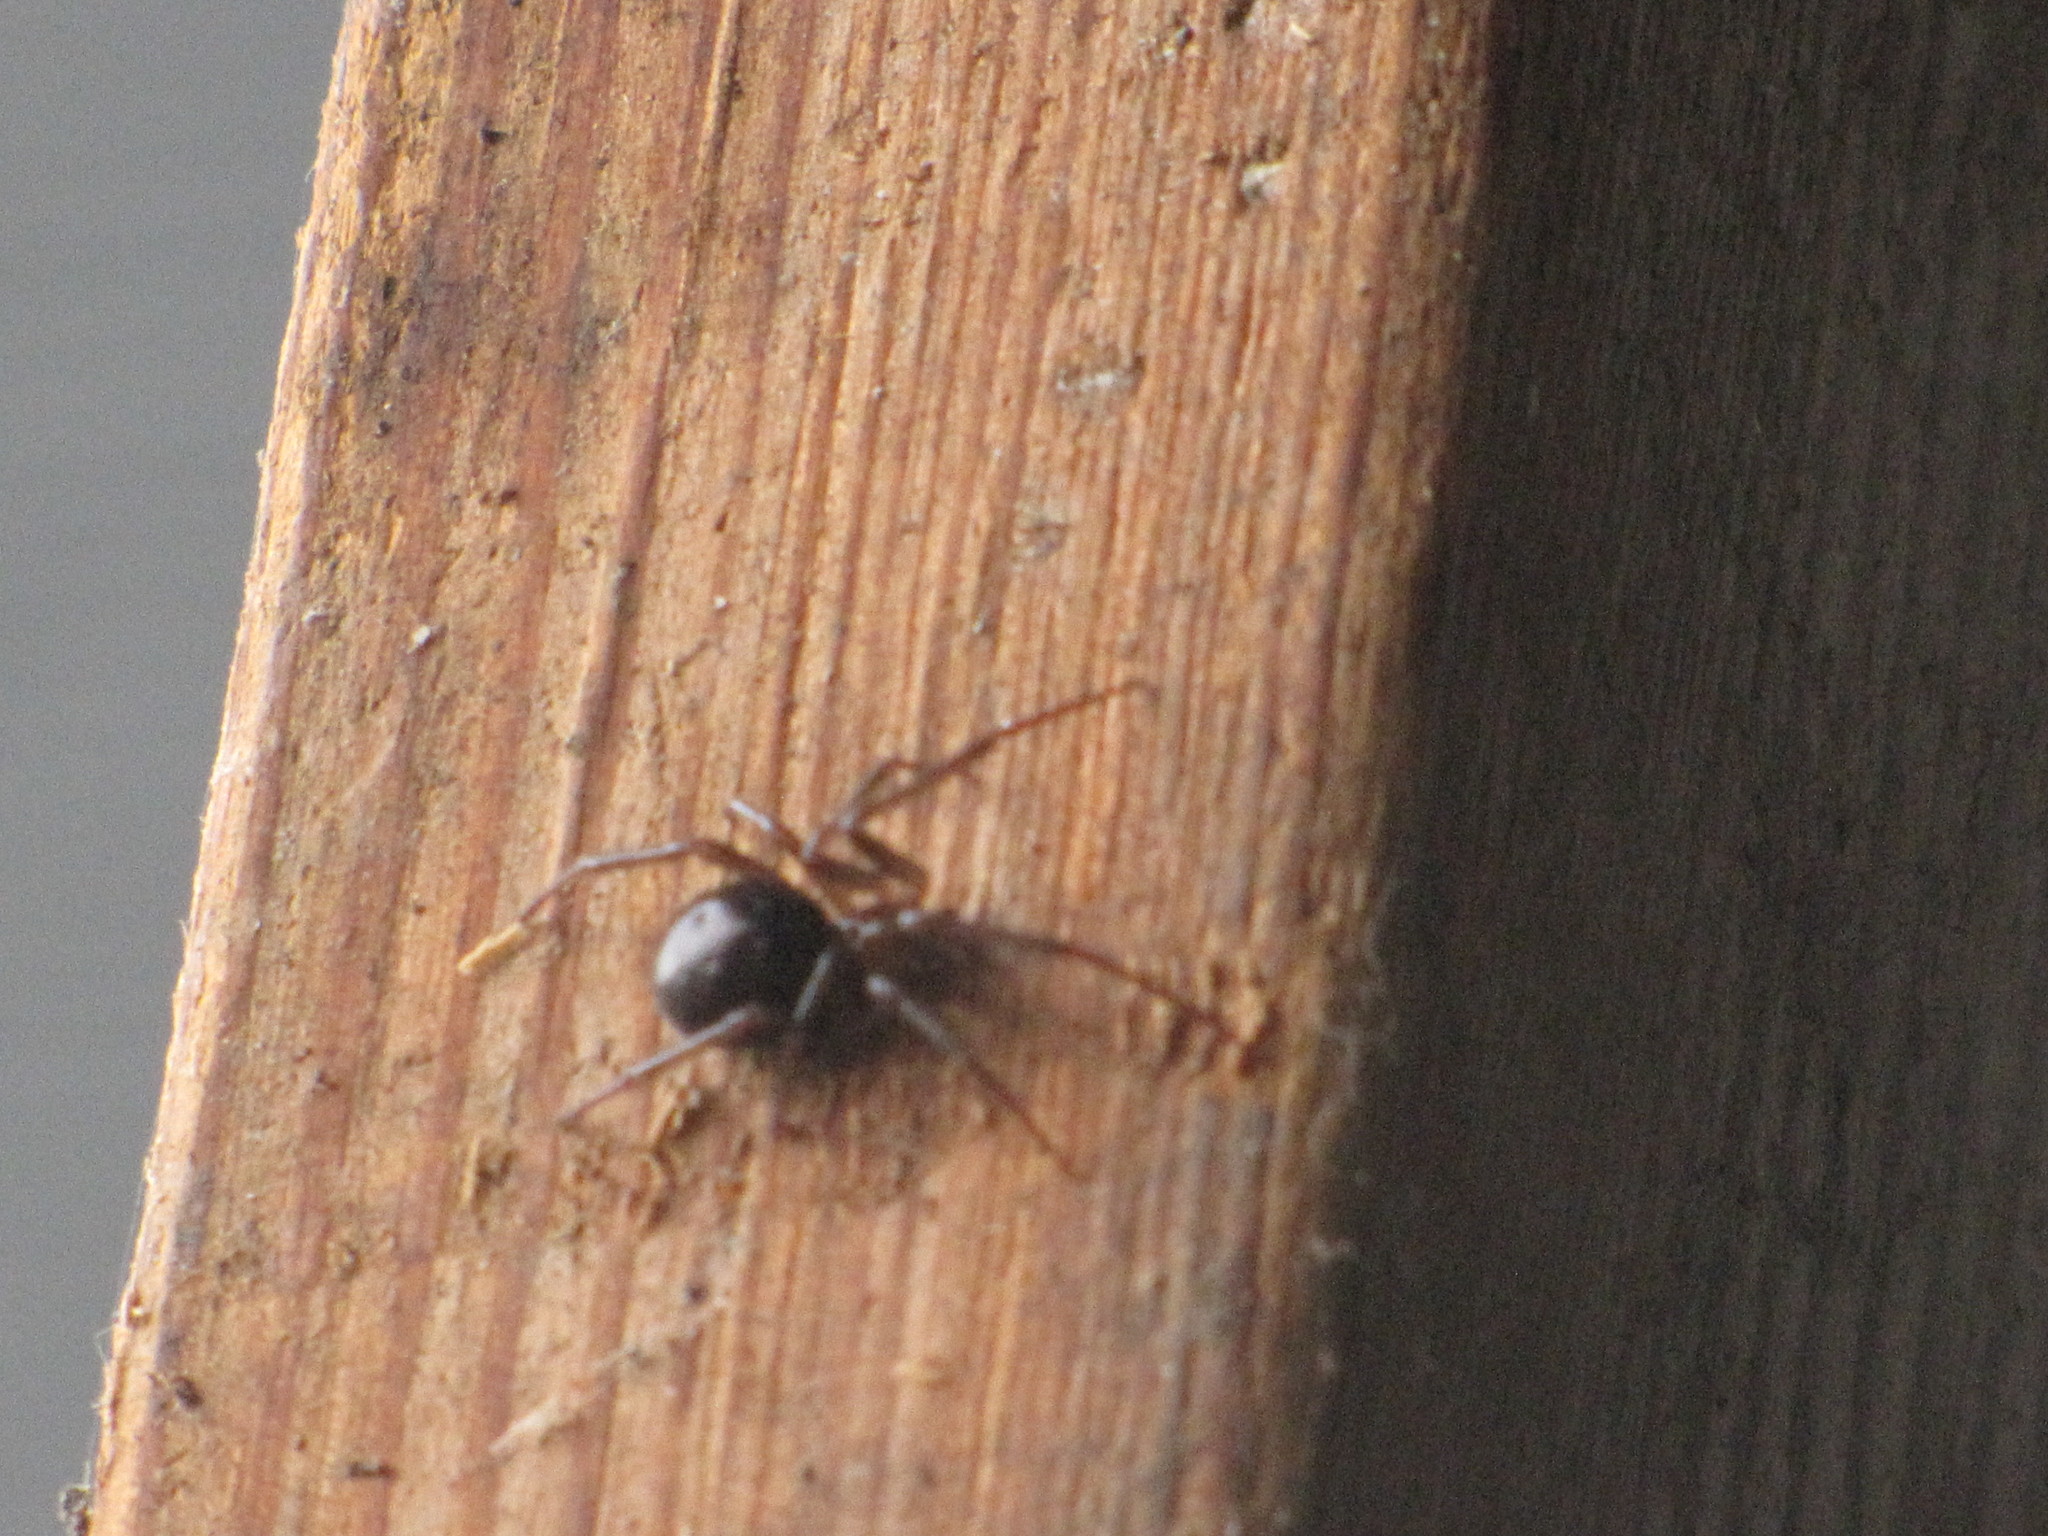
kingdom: Animalia
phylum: Arthropoda
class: Arachnida
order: Araneae
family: Theridiidae
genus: Steatoda
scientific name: Steatoda grossa
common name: False black widow
